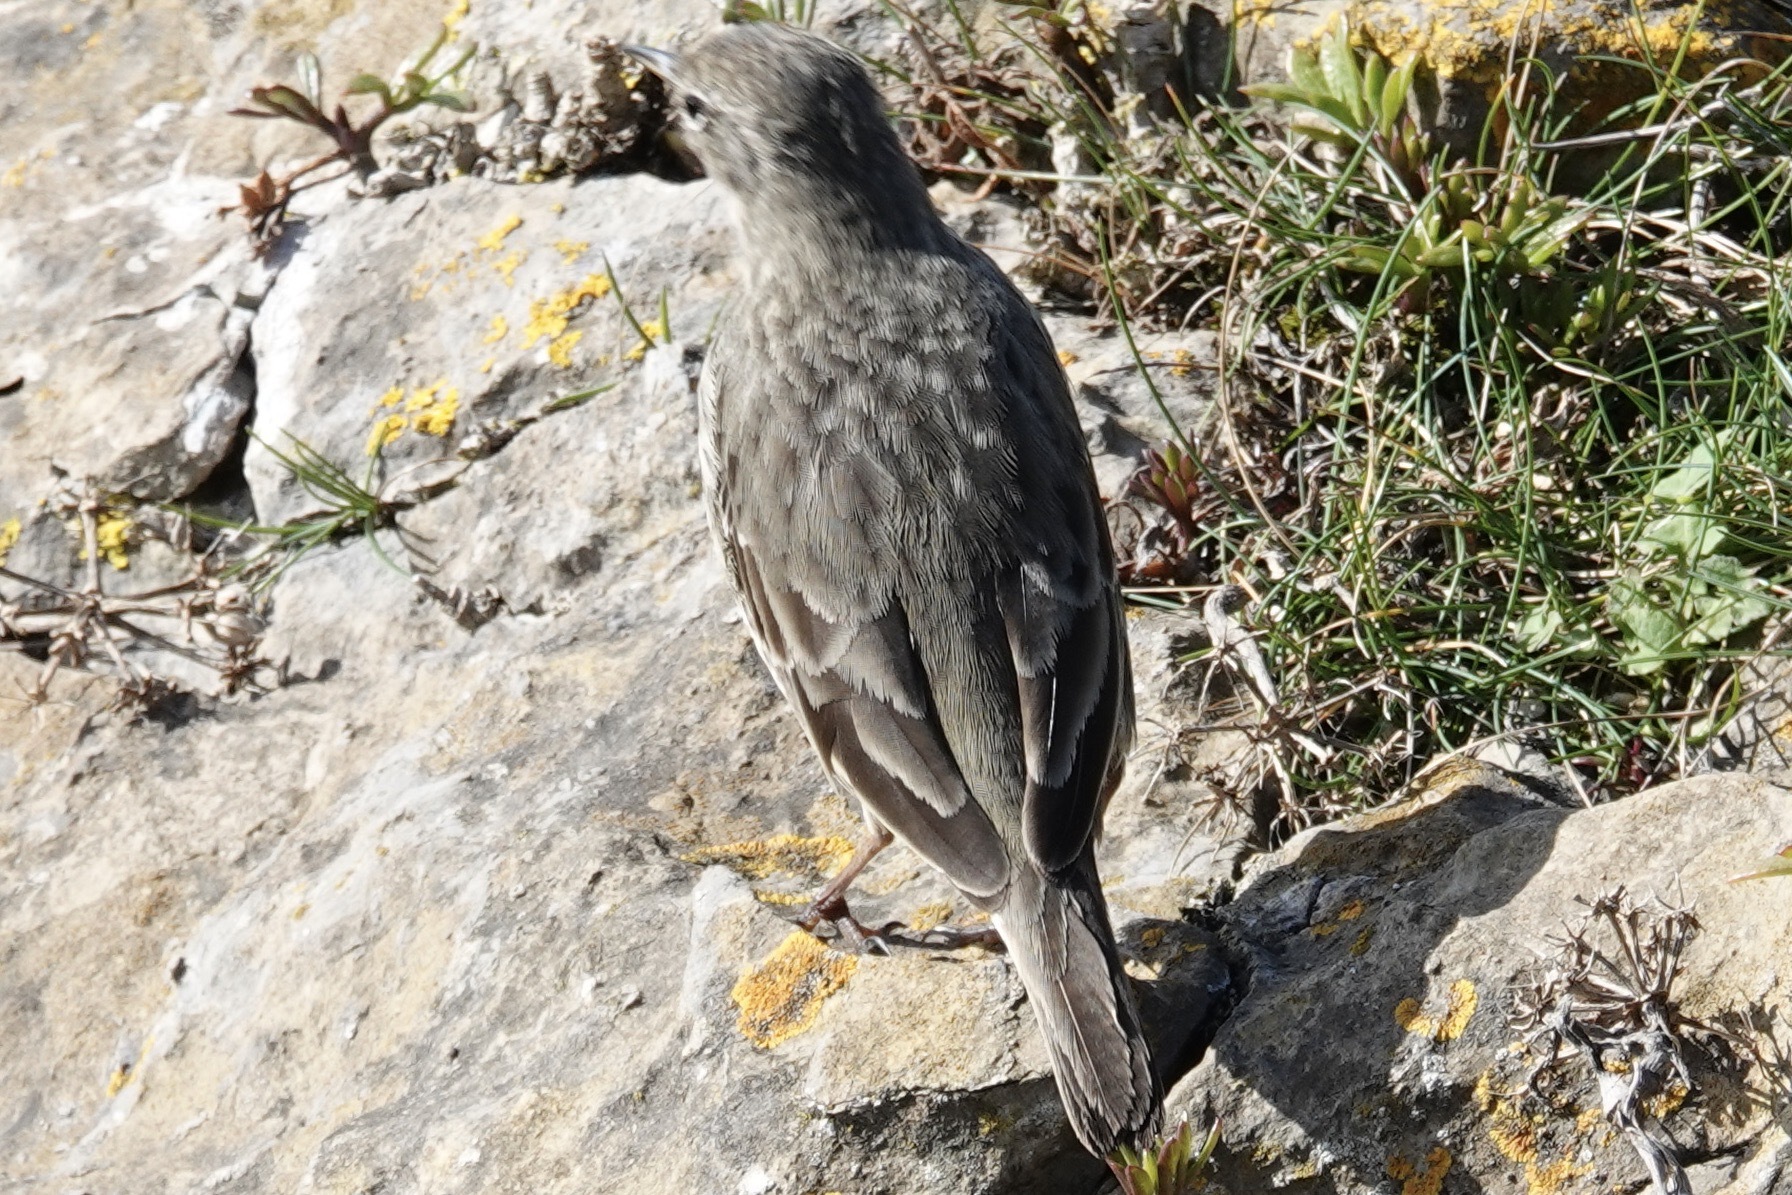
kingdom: Animalia
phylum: Chordata
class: Aves
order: Passeriformes
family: Motacillidae
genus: Anthus
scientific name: Anthus petrosus
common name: Eurasian rock pipit
